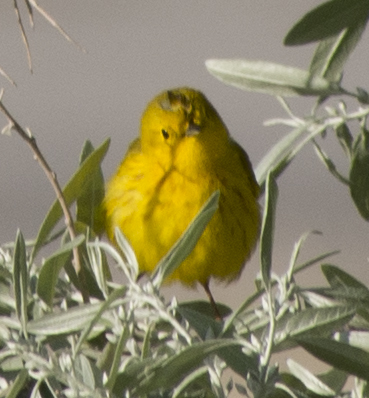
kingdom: Animalia
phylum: Chordata
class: Aves
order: Passeriformes
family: Parulidae
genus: Setophaga
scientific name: Setophaga petechia
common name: Yellow warbler
